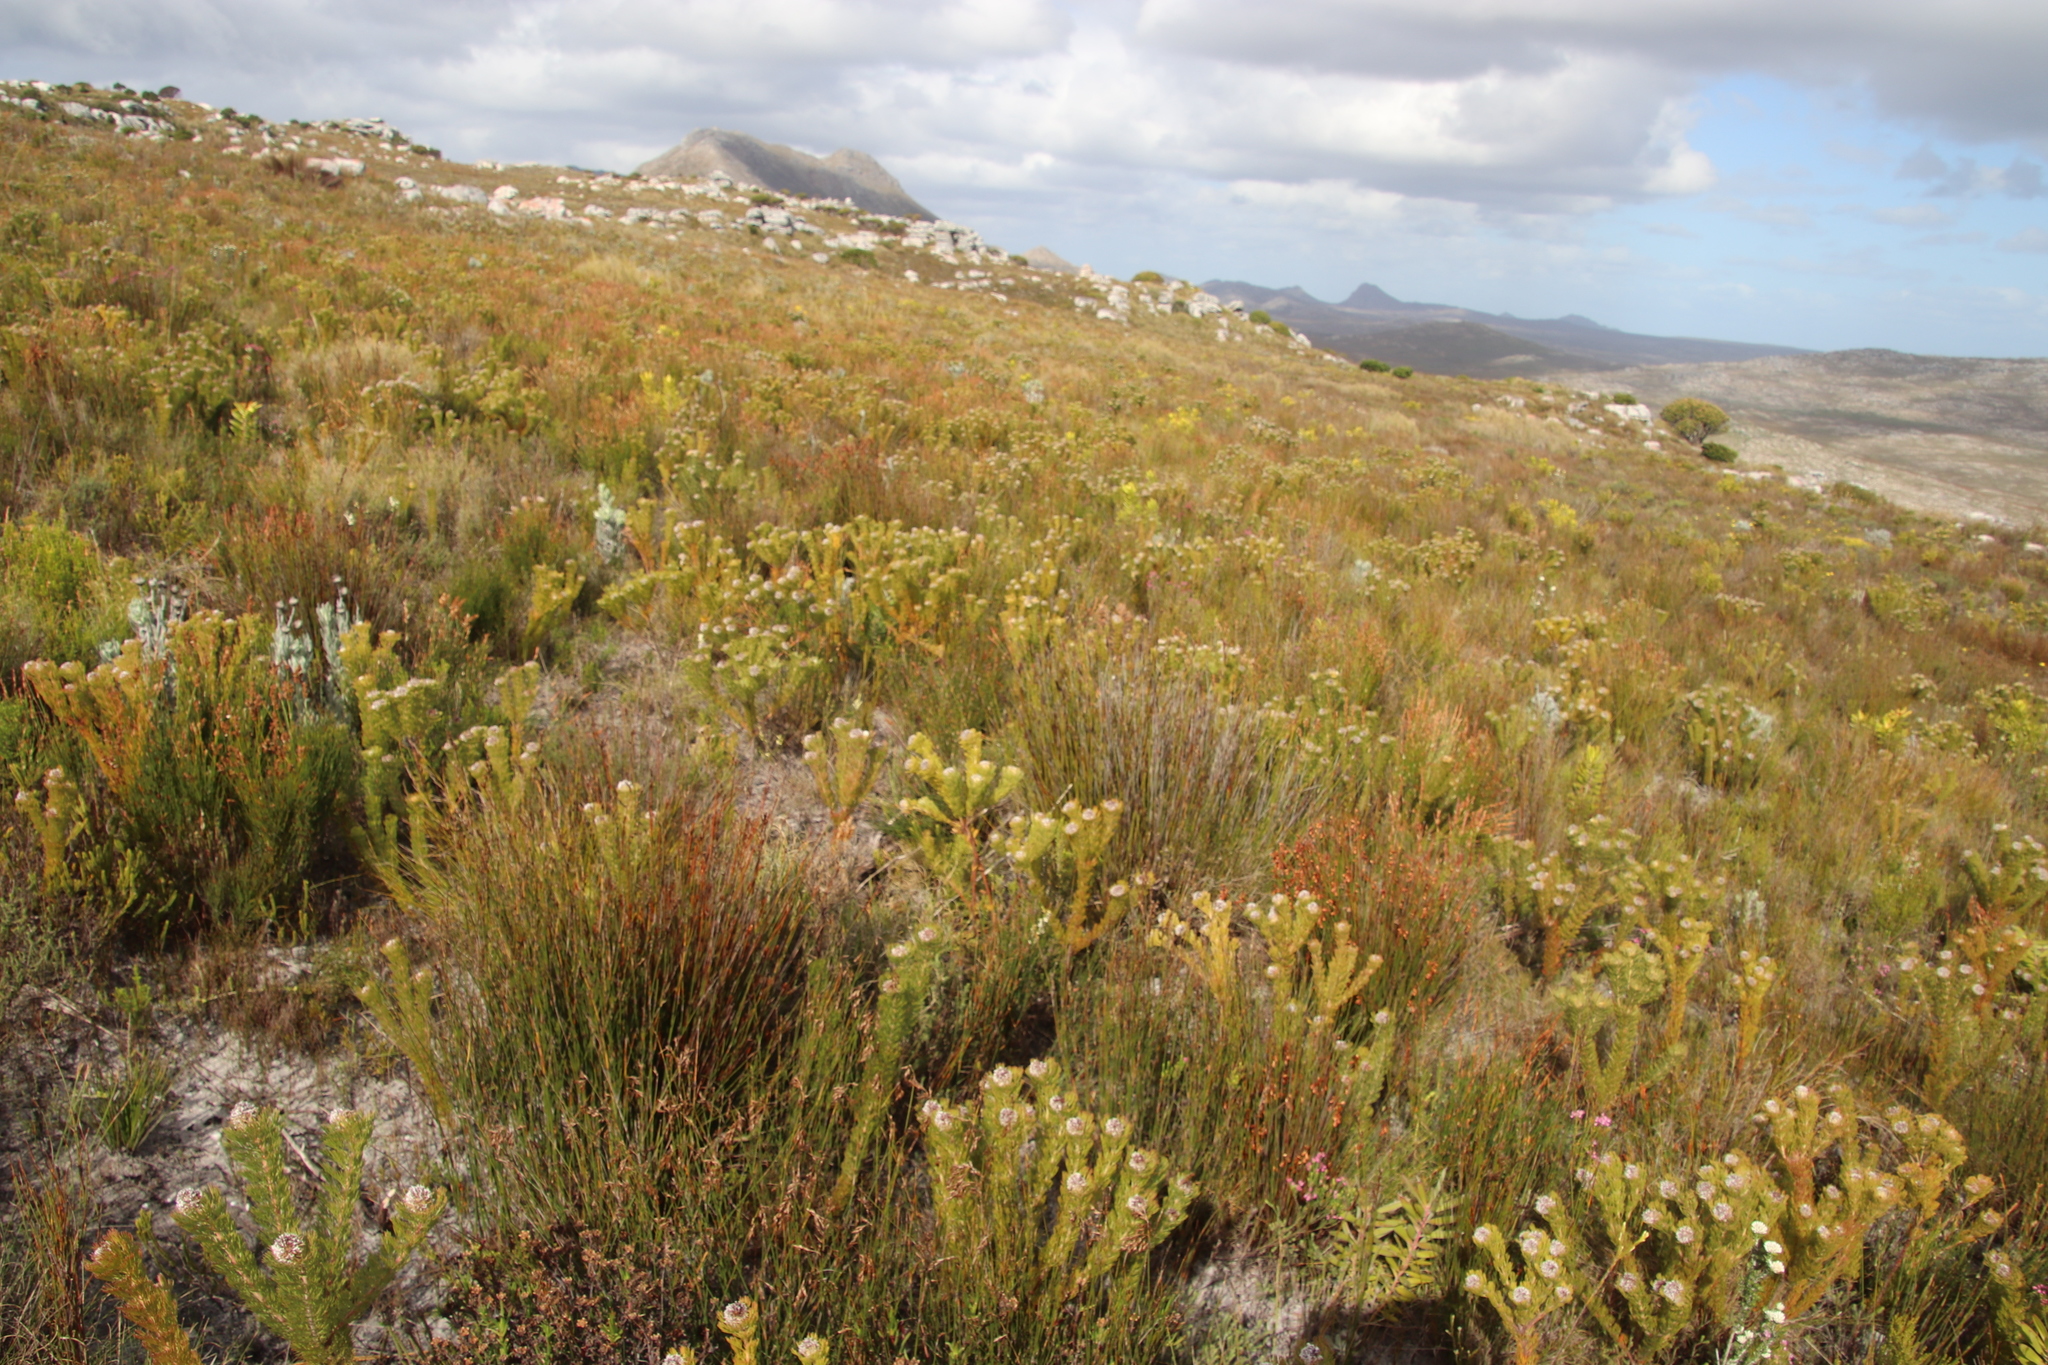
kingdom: Plantae
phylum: Tracheophyta
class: Magnoliopsida
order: Proteales
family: Proteaceae
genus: Serruria
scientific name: Serruria villosa
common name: Golden spiderhead
